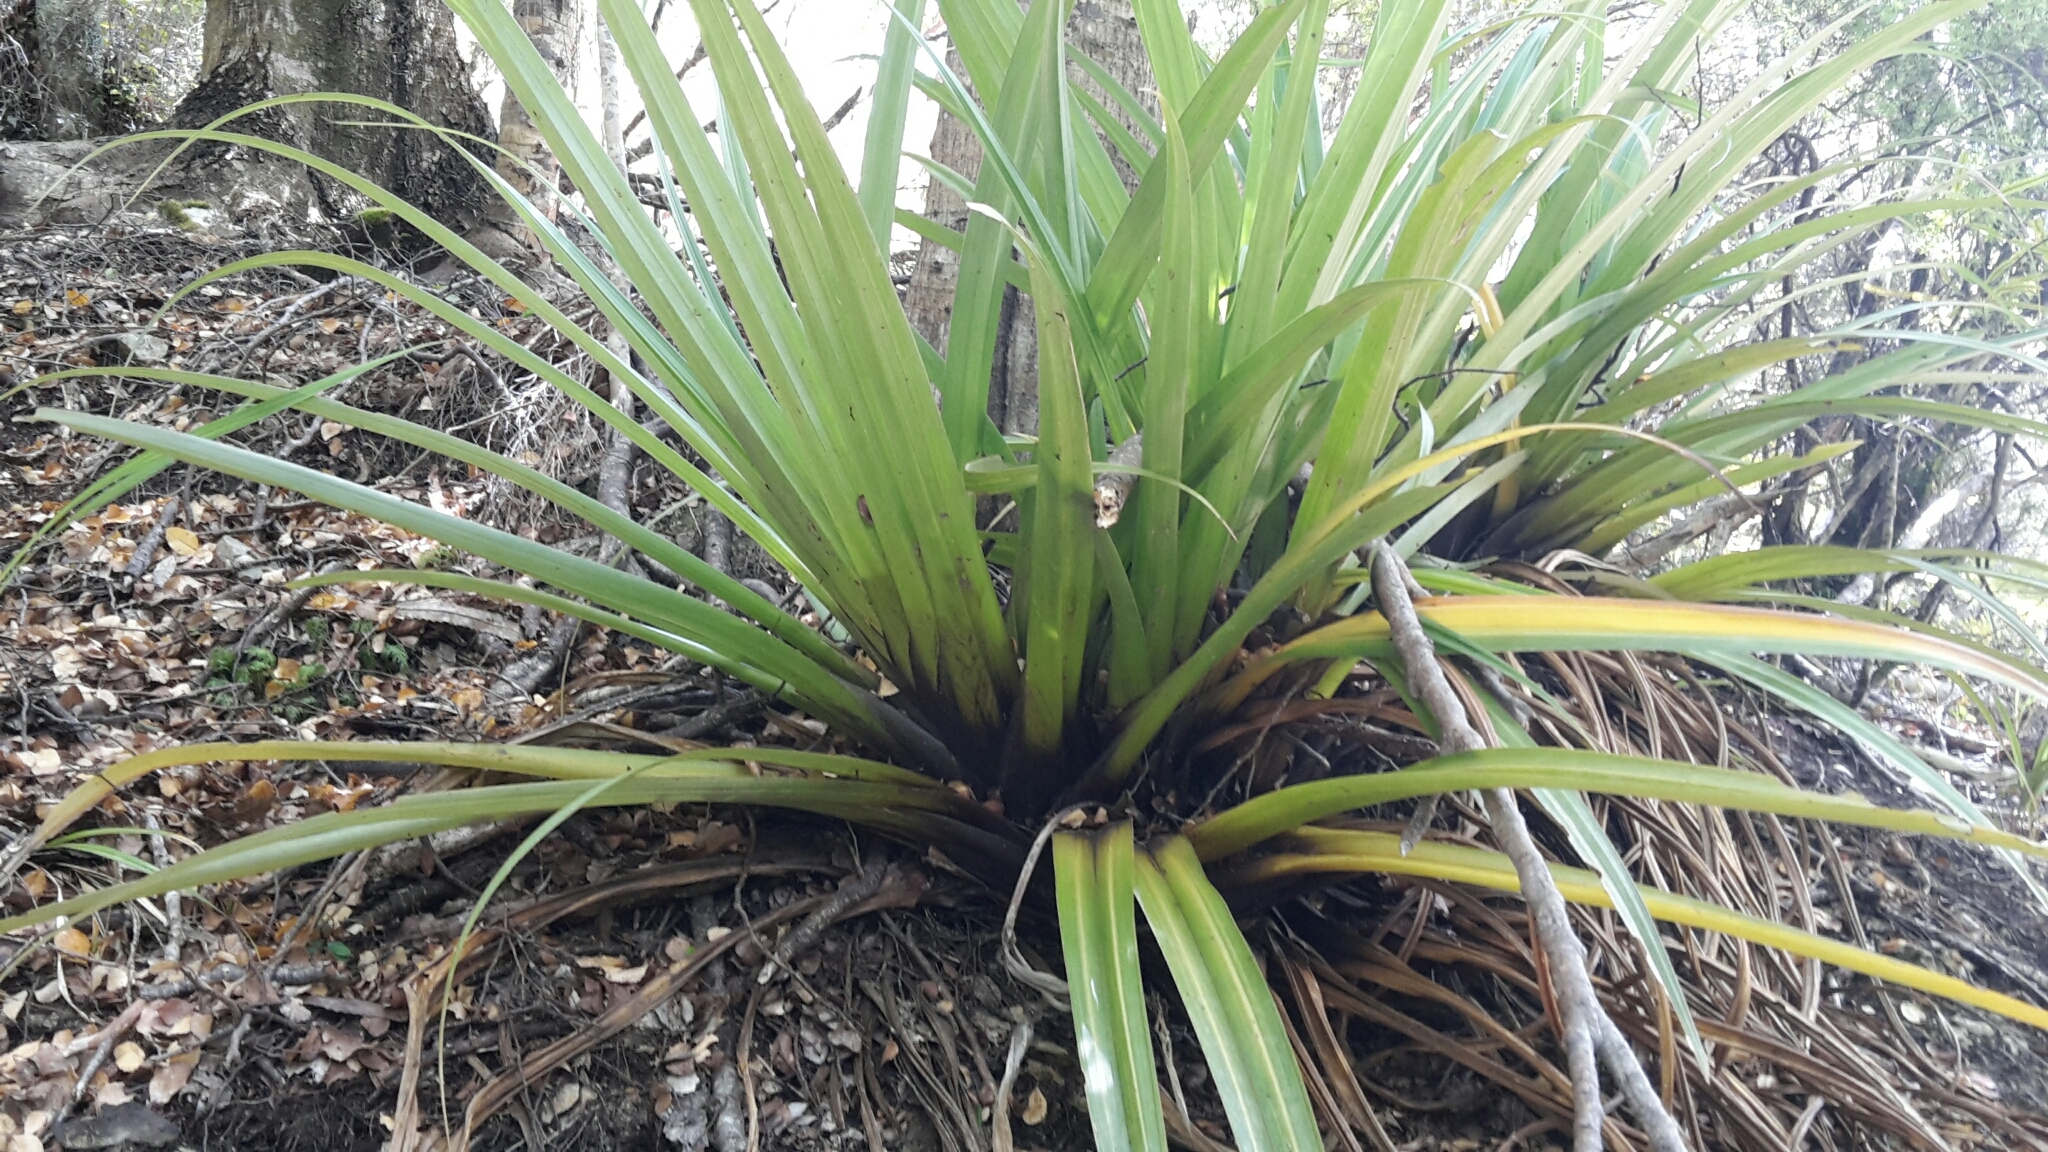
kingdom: Plantae
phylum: Tracheophyta
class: Liliopsida
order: Asparagales
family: Asteliaceae
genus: Astelia
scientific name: Astelia hastata
